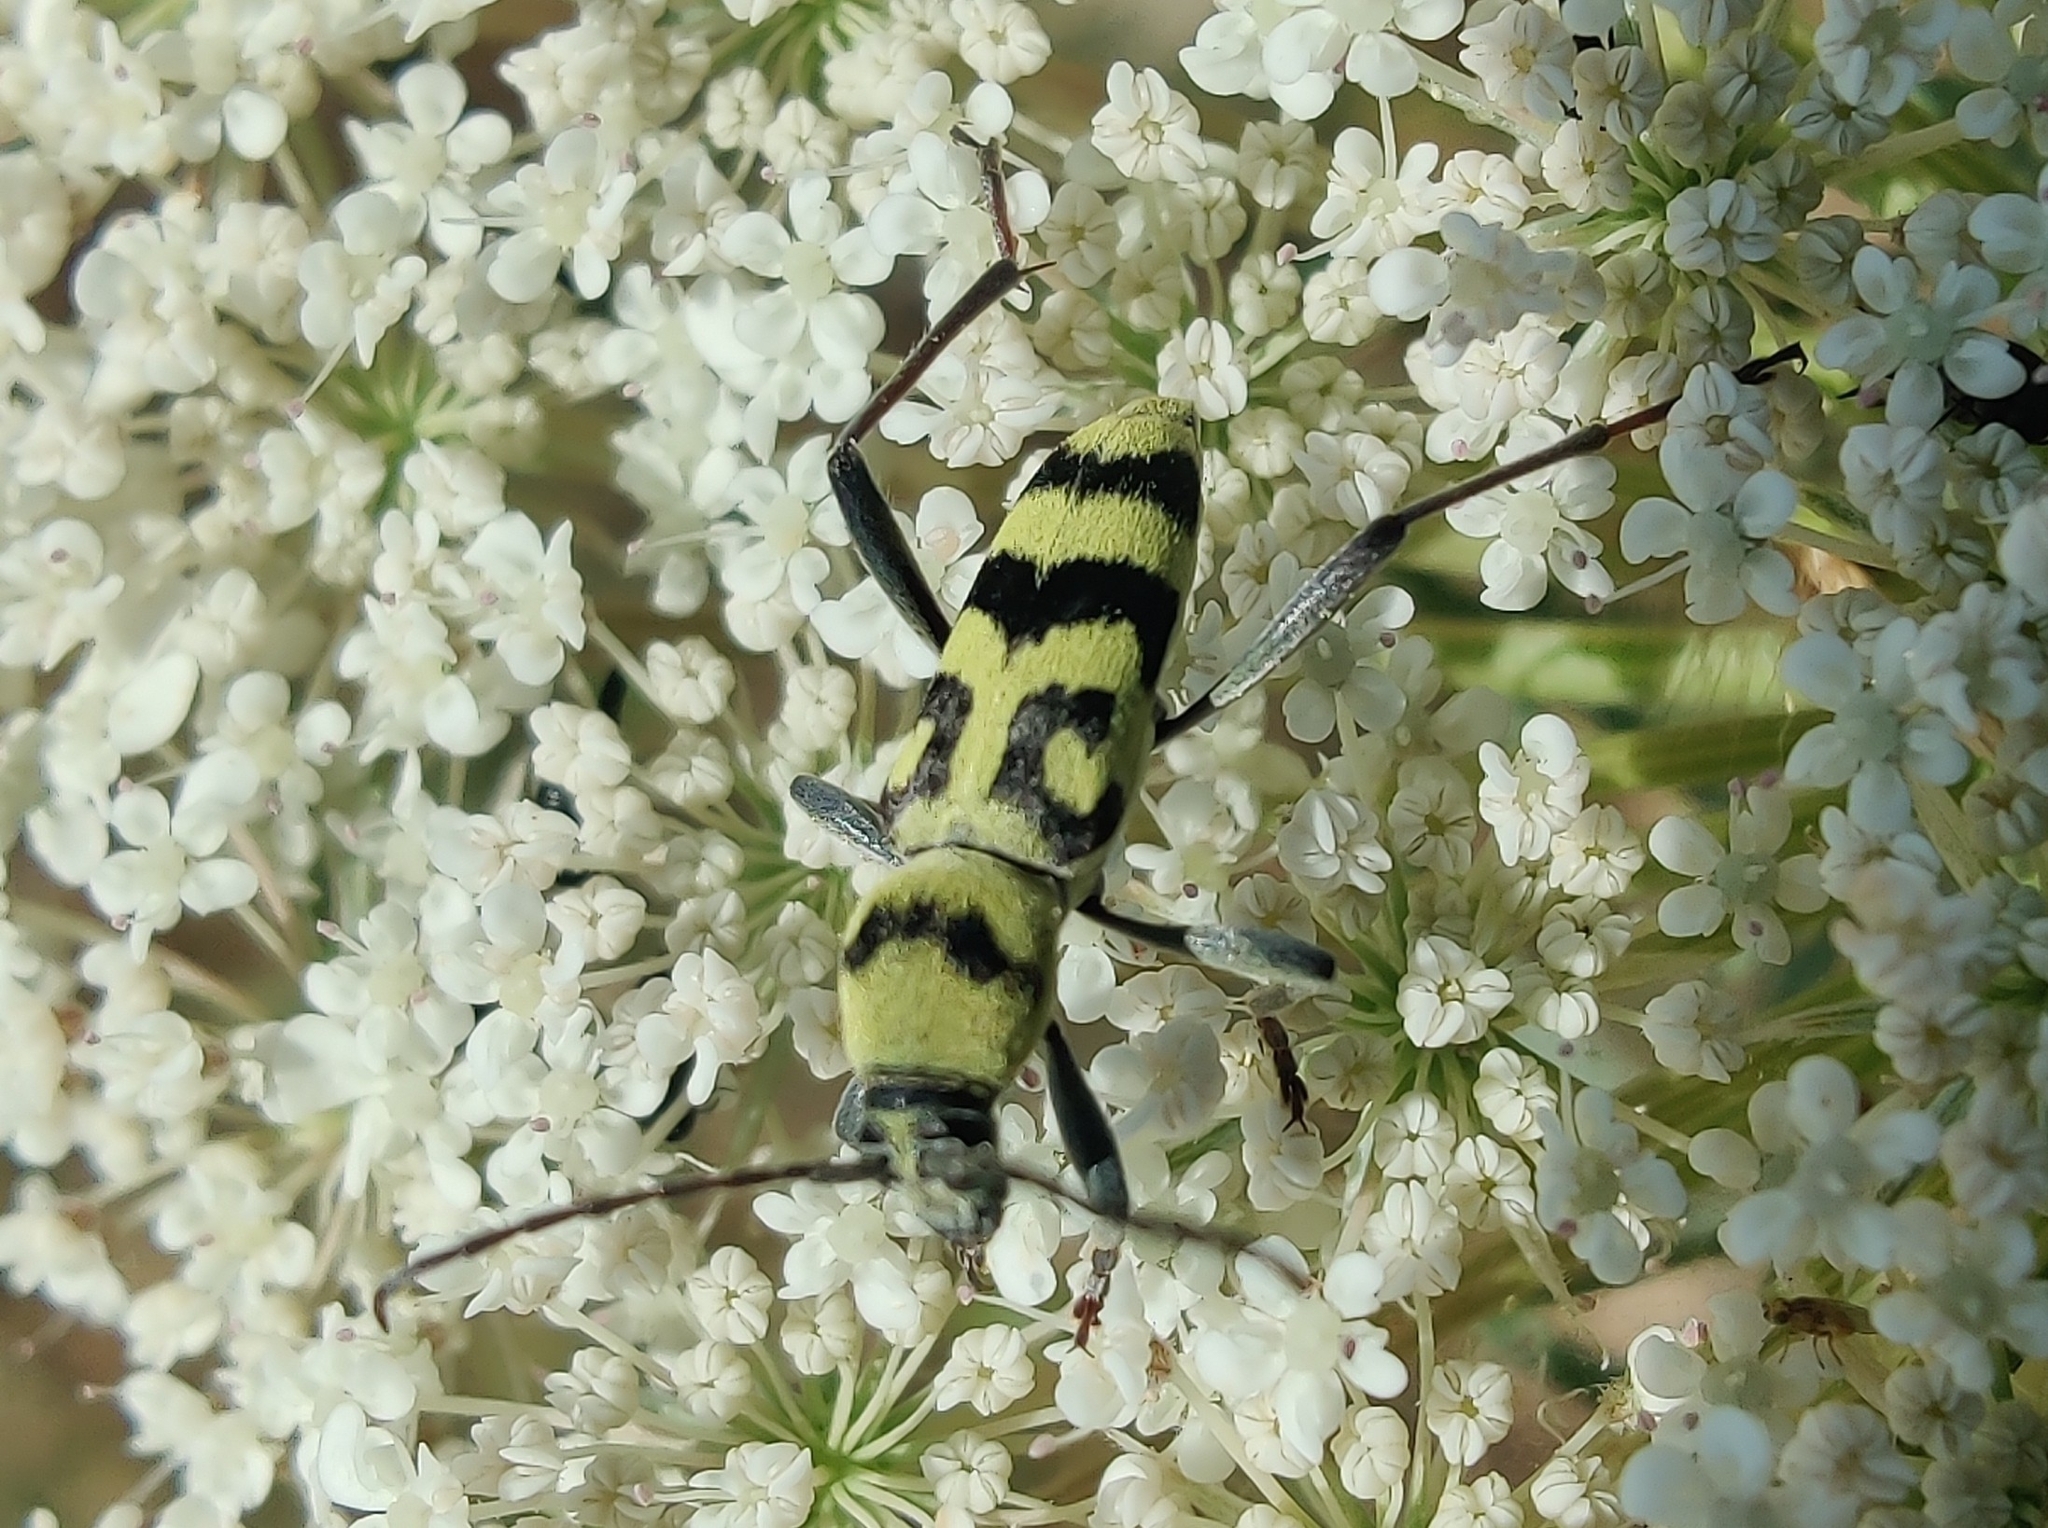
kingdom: Animalia
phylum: Arthropoda
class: Insecta
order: Coleoptera
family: Cerambycidae
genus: Chlorophorus
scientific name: Chlorophorus varius
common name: Grape wood borer
